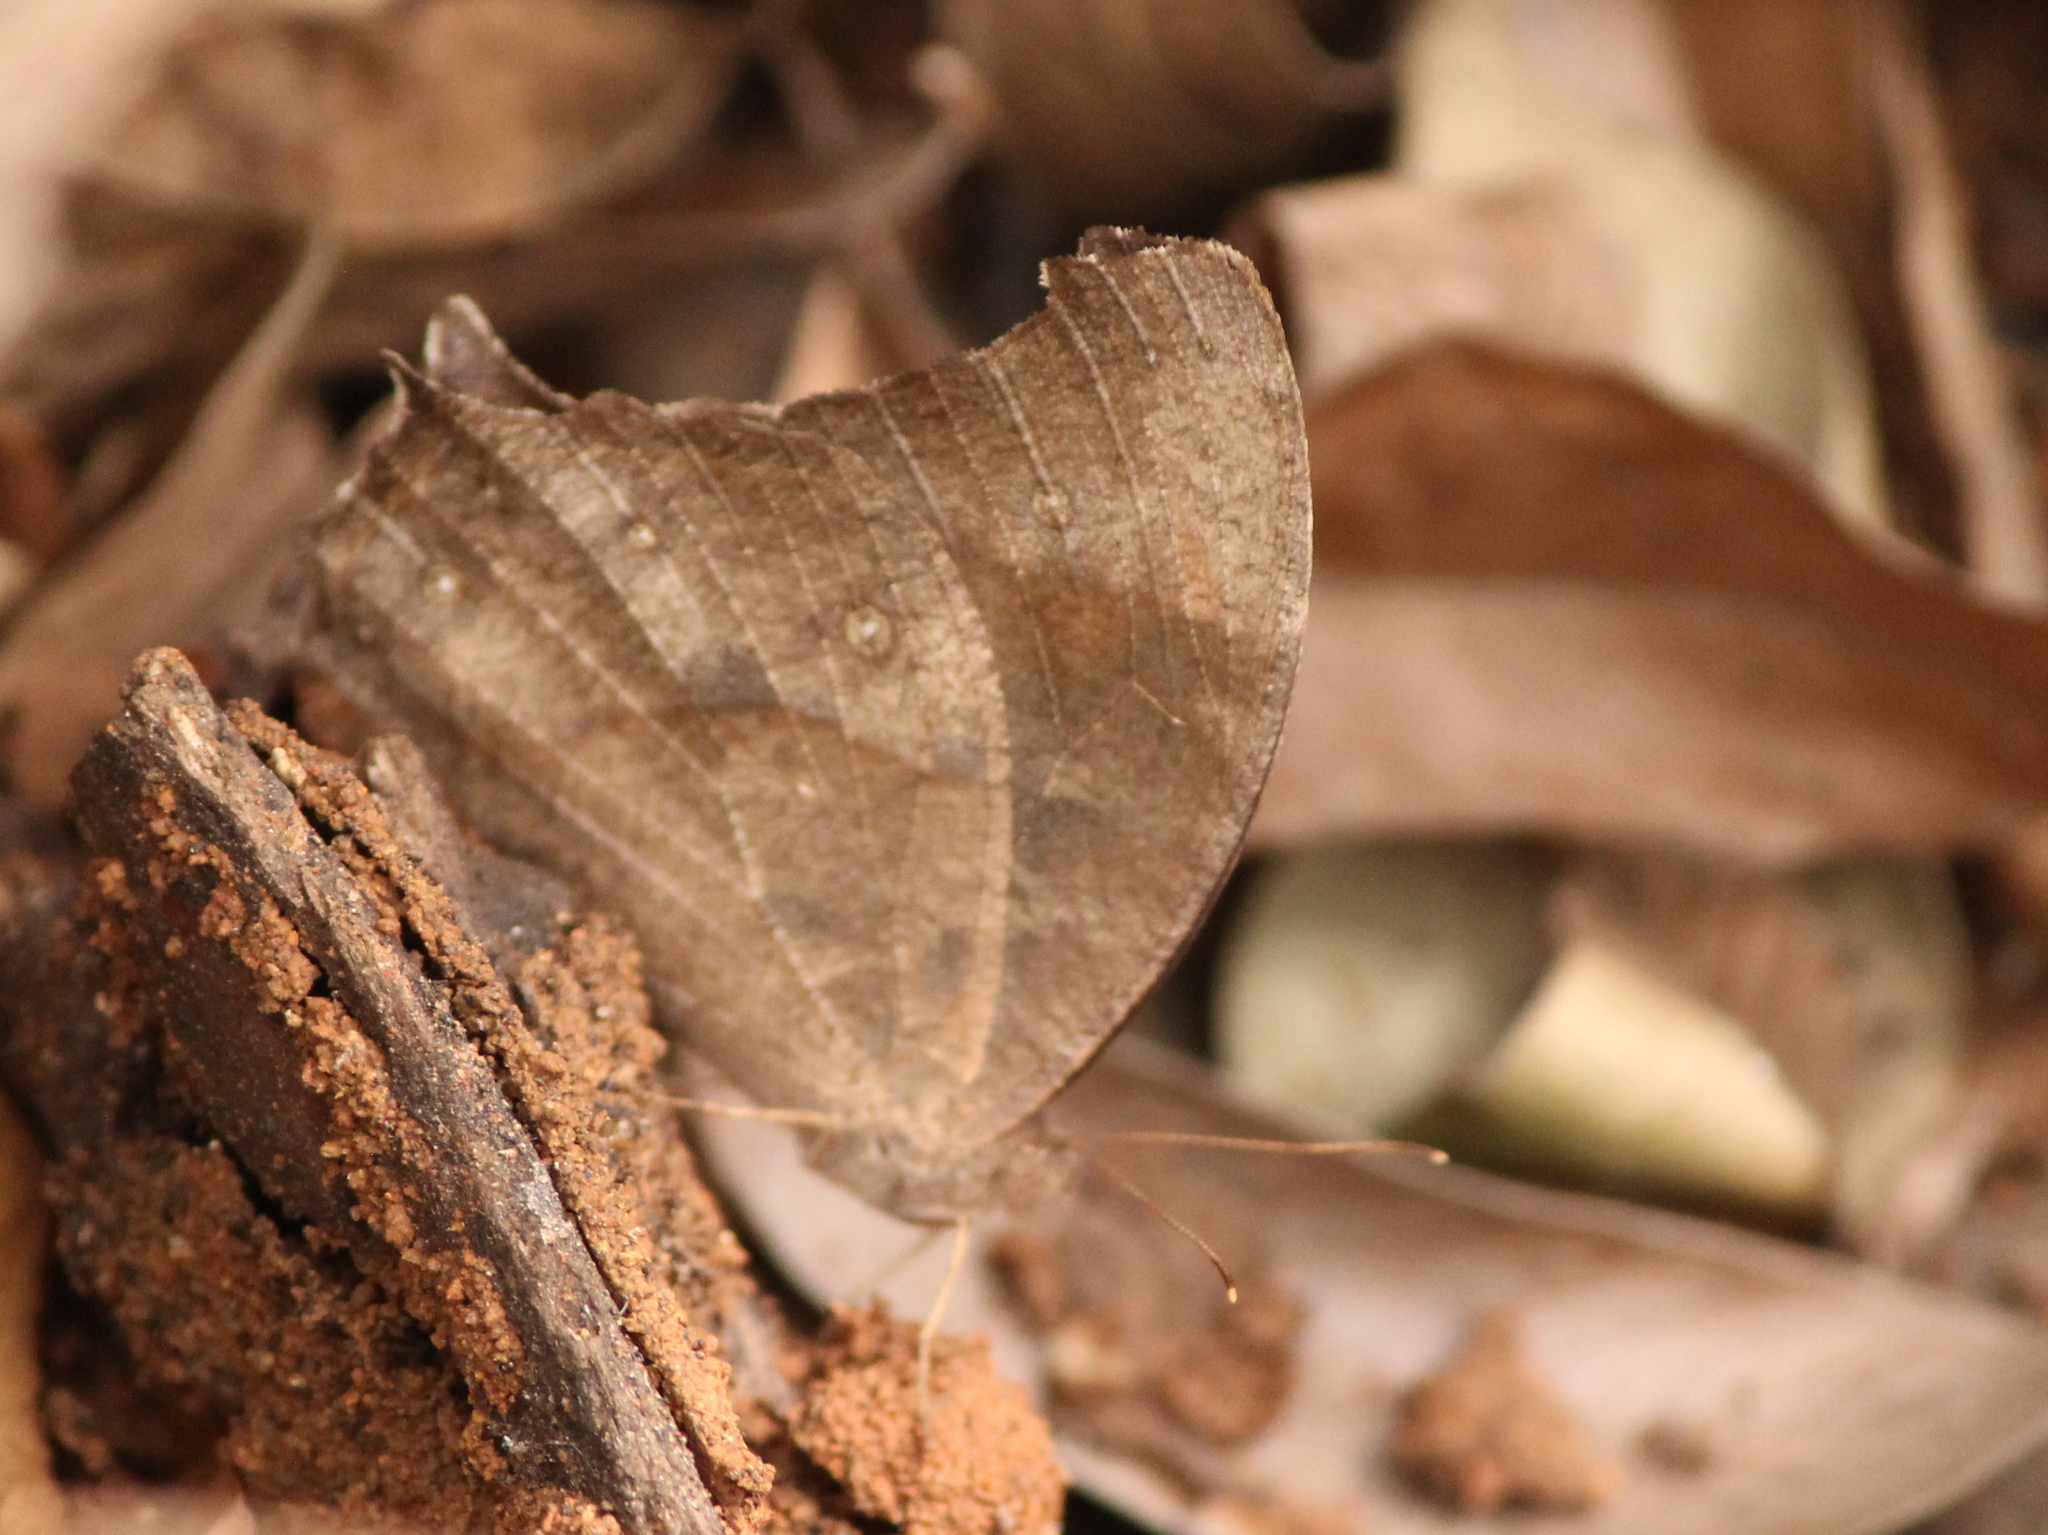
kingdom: Animalia
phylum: Arthropoda
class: Insecta
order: Lepidoptera
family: Nymphalidae
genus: Melanitis
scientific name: Melanitis leda
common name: Twilight brown
